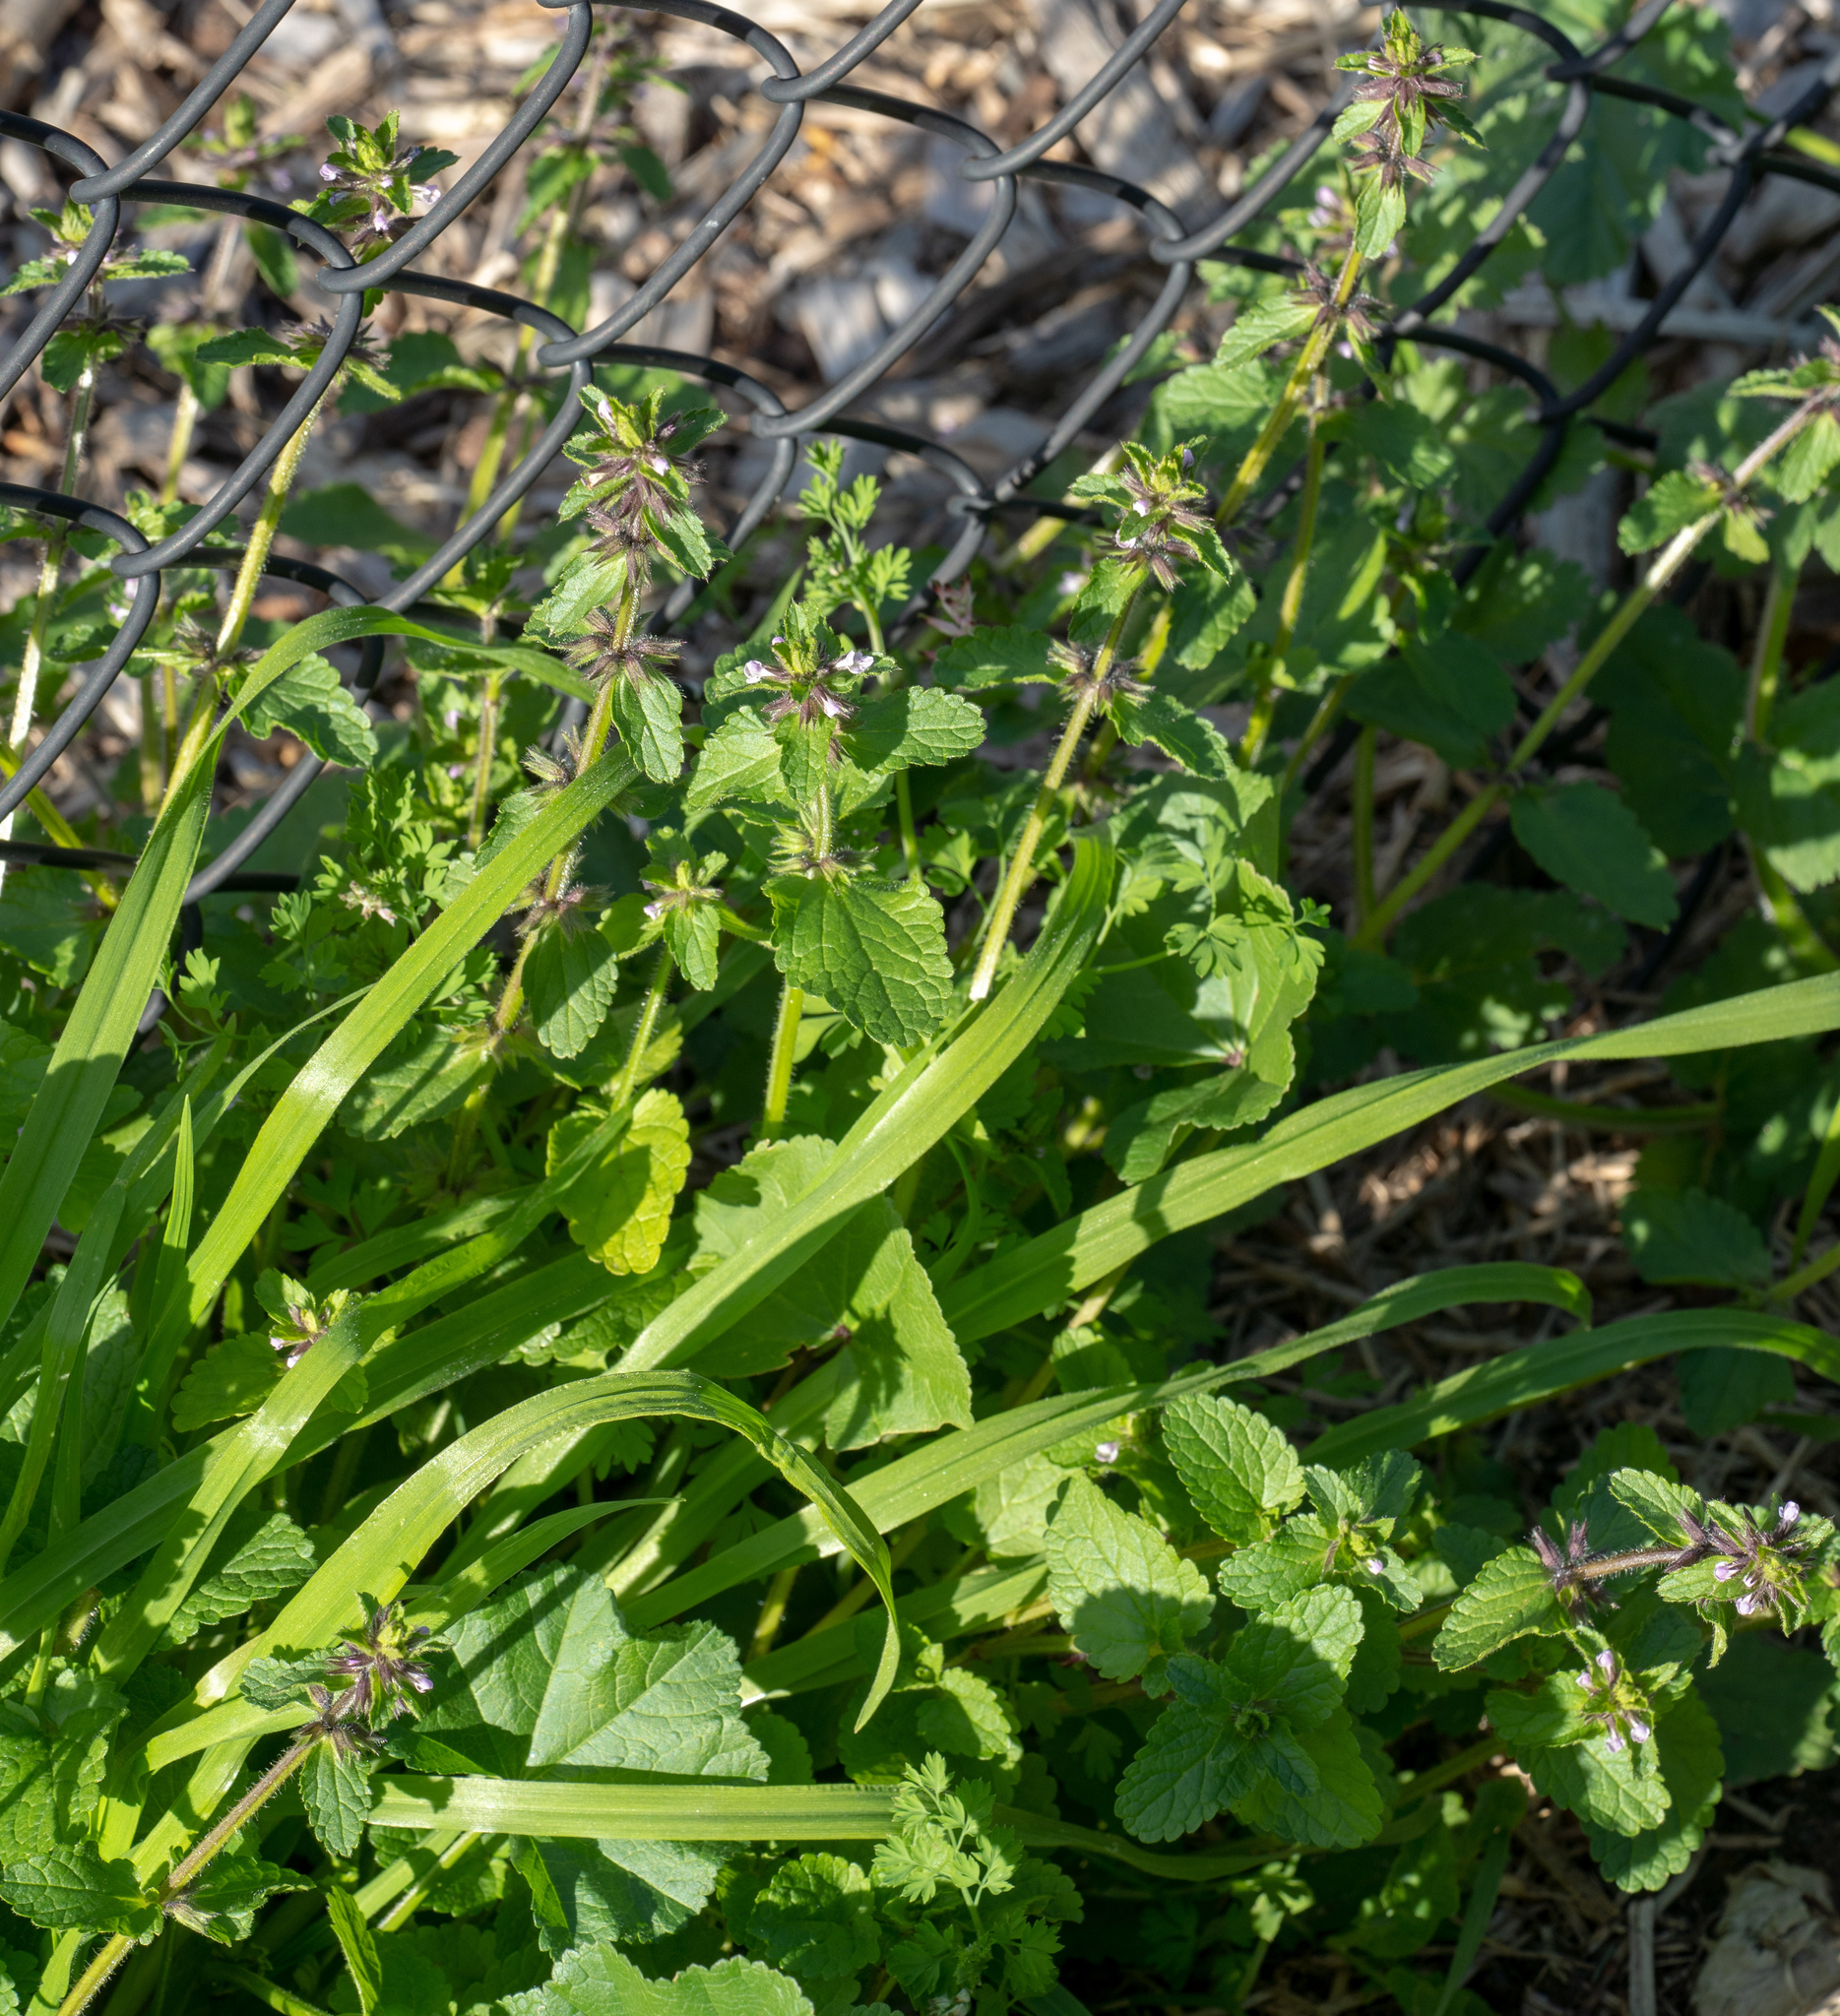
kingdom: Plantae
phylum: Tracheophyta
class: Magnoliopsida
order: Lamiales
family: Lamiaceae
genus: Stachys
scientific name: Stachys arvensis
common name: Field woundwort
